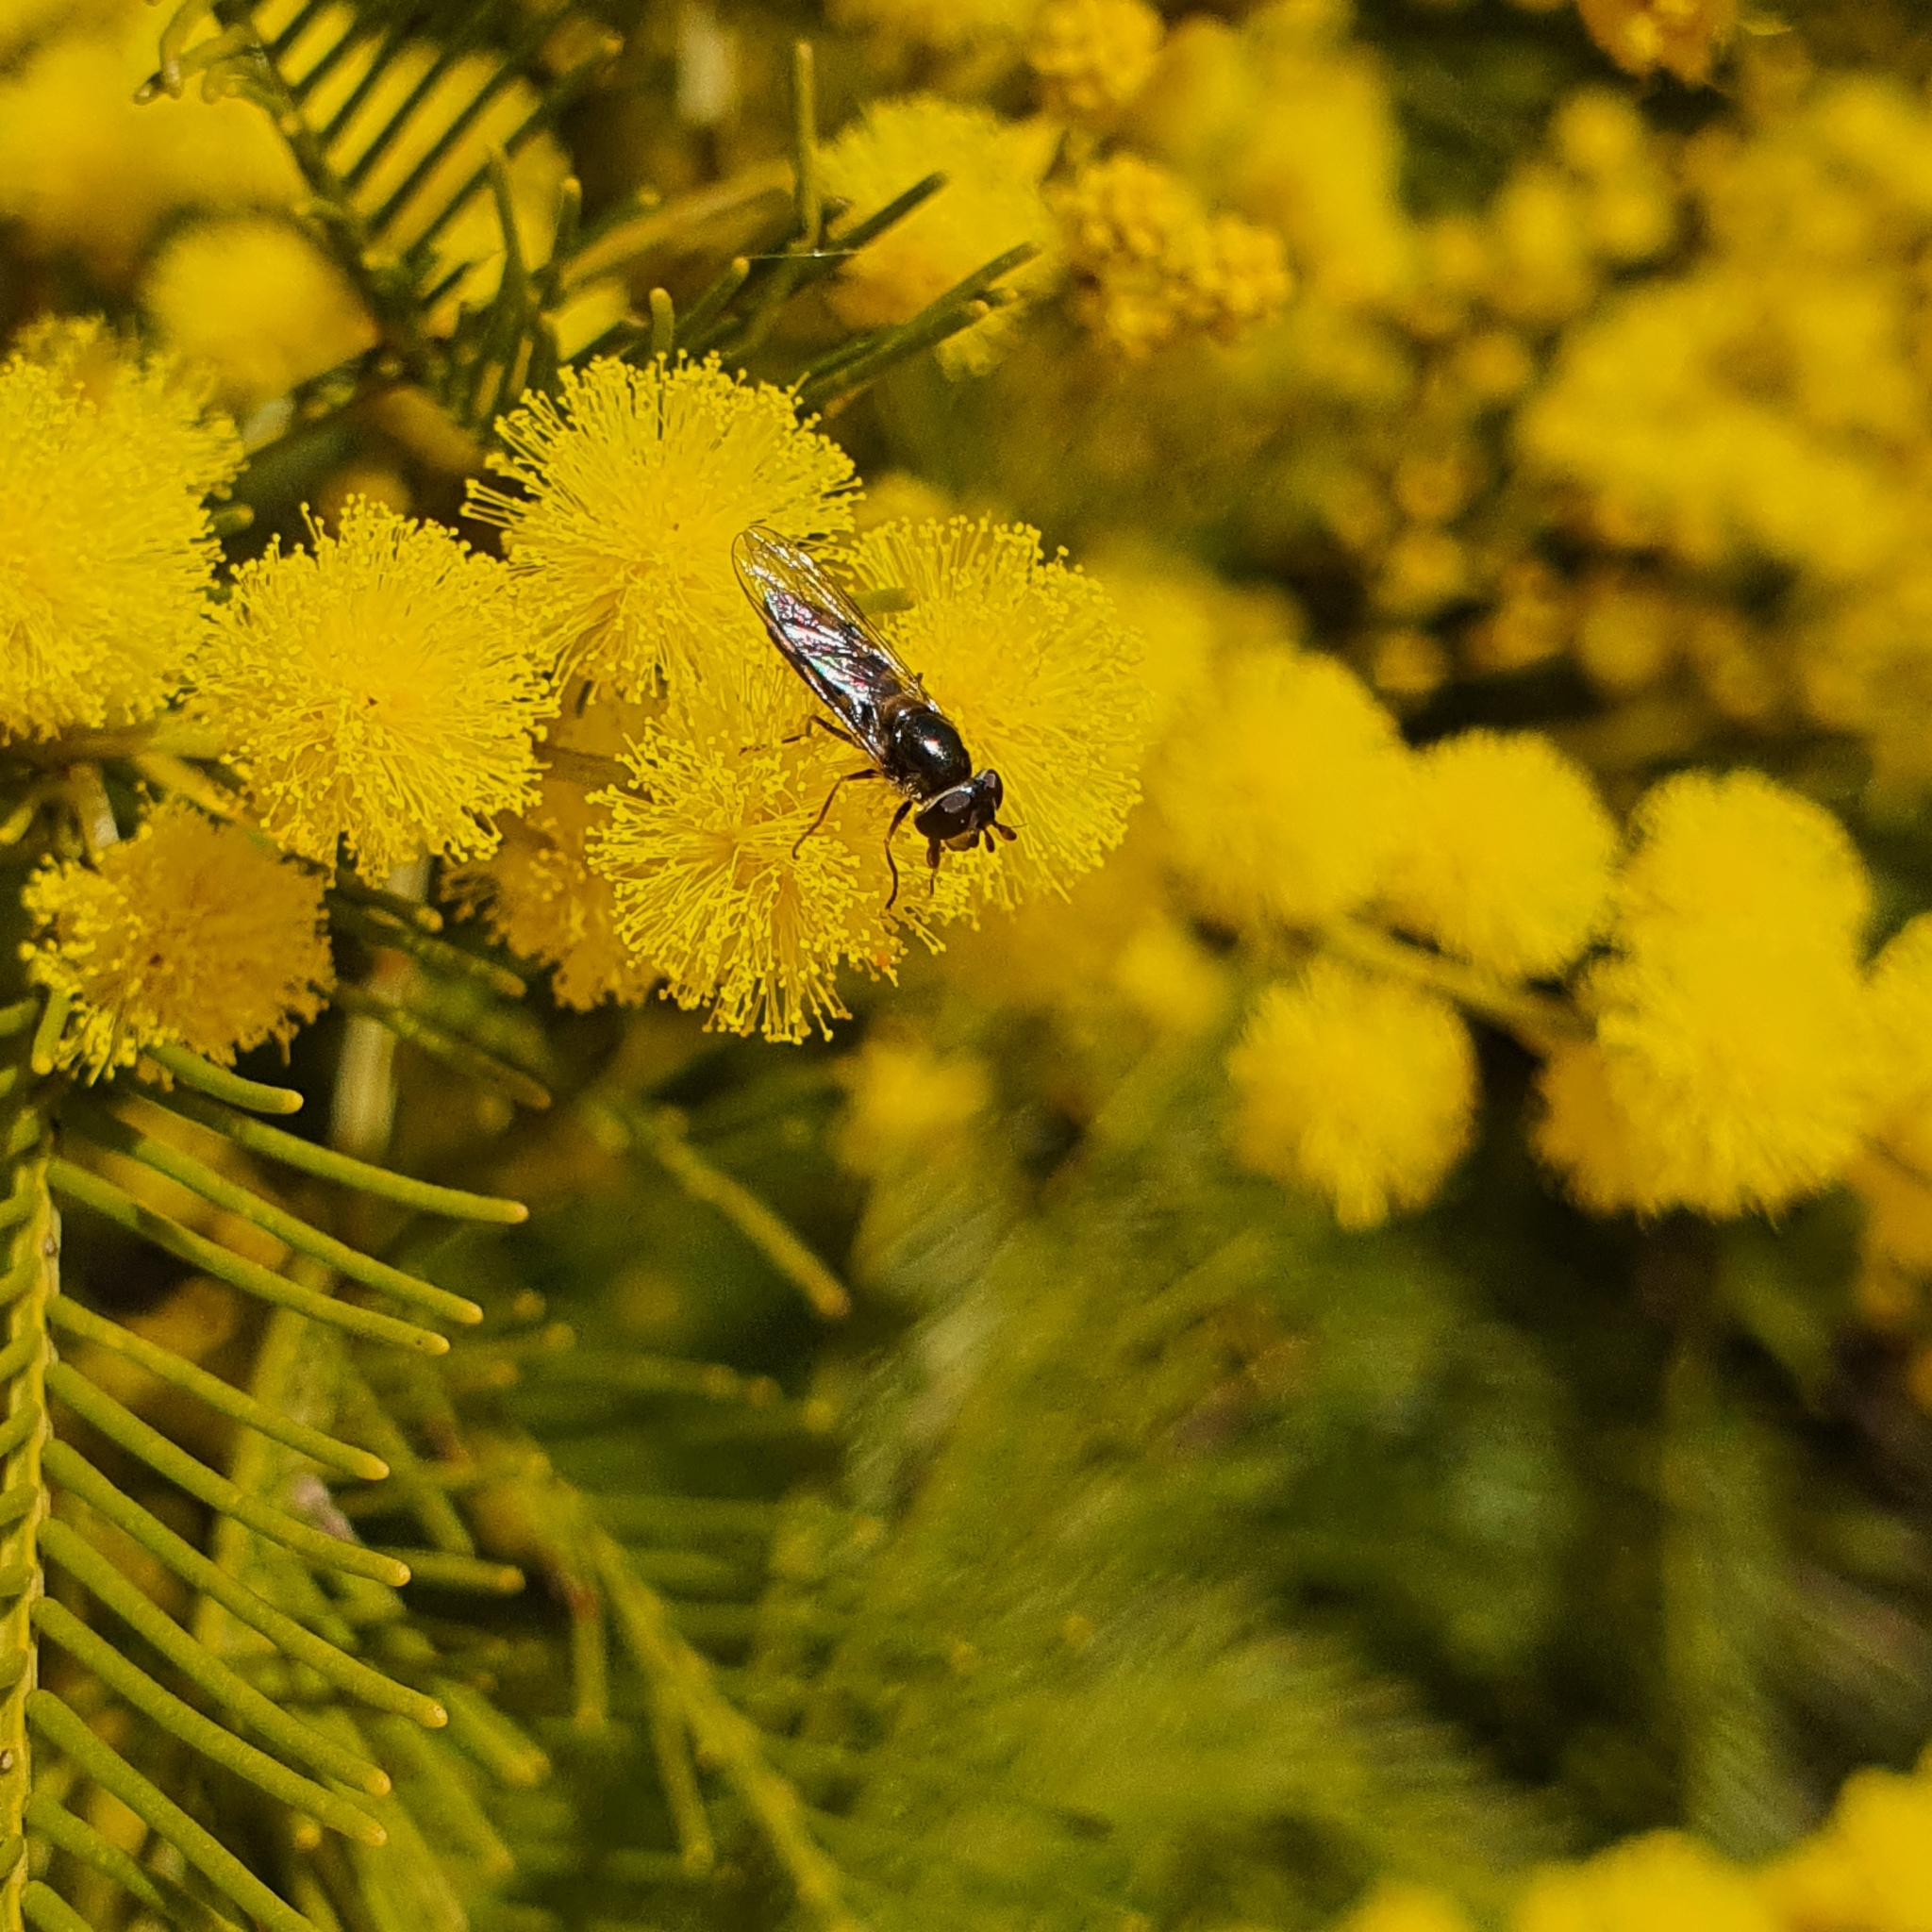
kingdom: Animalia
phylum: Arthropoda
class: Insecta
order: Diptera
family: Syrphidae
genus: Melangyna
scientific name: Melangyna viridiceps
